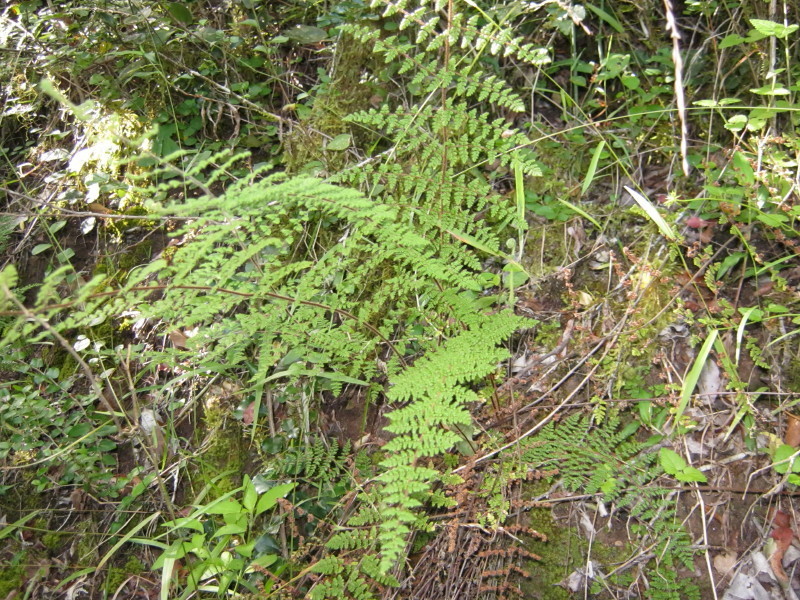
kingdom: Plantae
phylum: Tracheophyta
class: Polypodiopsida
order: Polypodiales
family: Pteridaceae
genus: Cheilanthes
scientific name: Cheilanthes hirta
